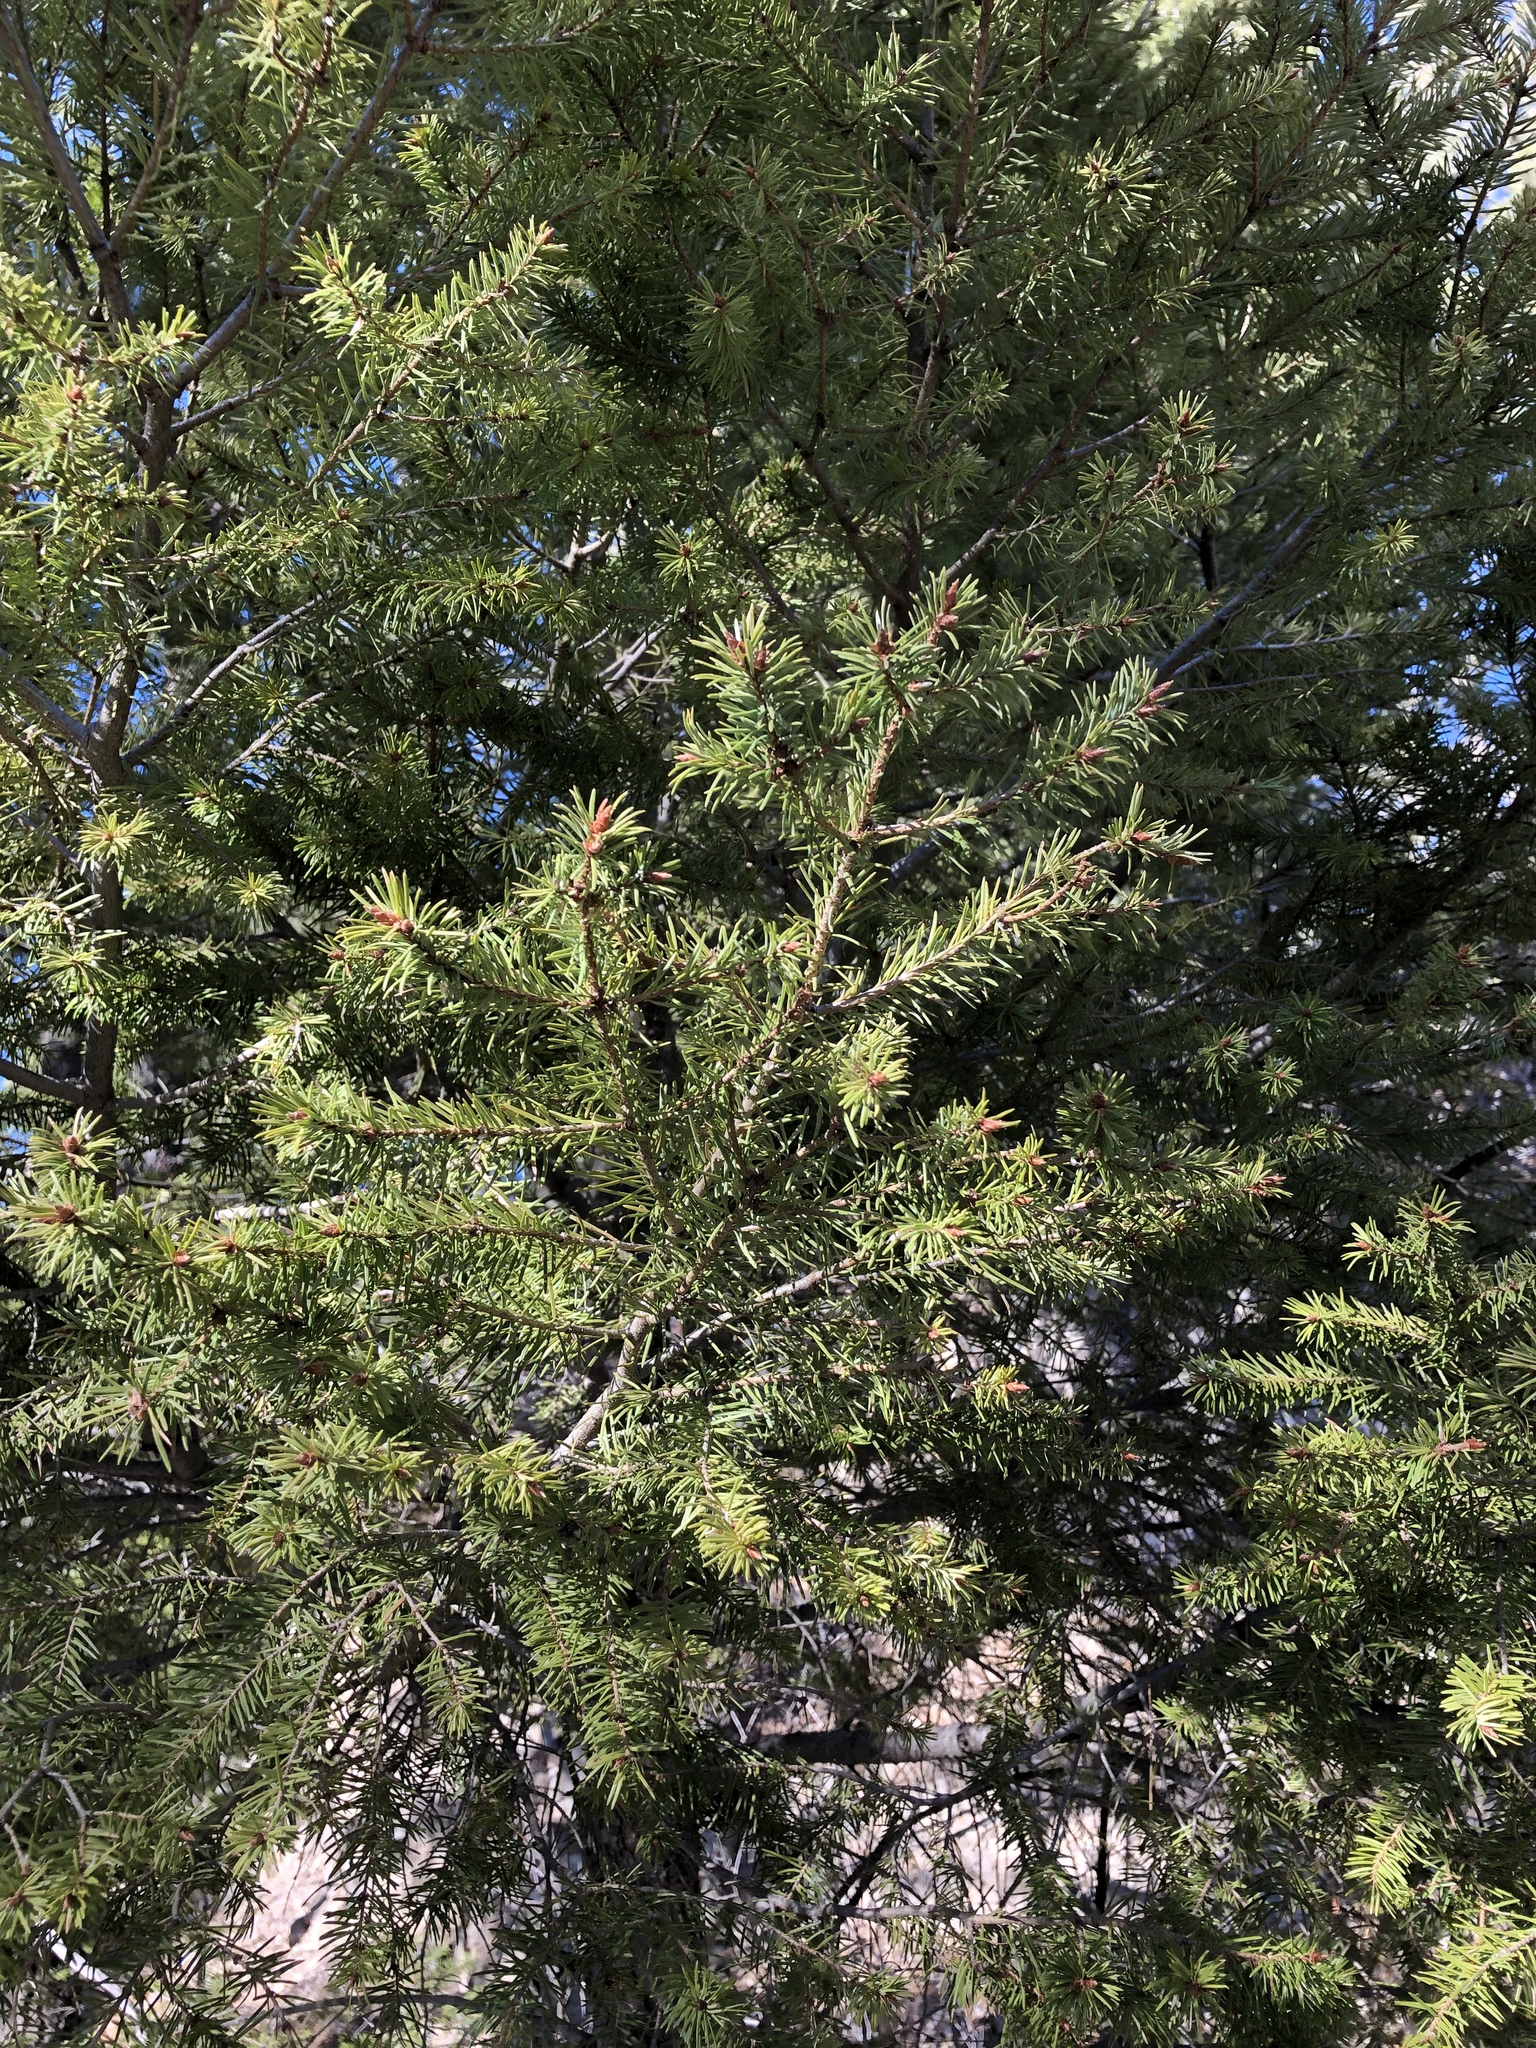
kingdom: Plantae
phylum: Tracheophyta
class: Pinopsida
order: Pinales
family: Pinaceae
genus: Pseudotsuga
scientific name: Pseudotsuga menziesii
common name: Douglas fir
